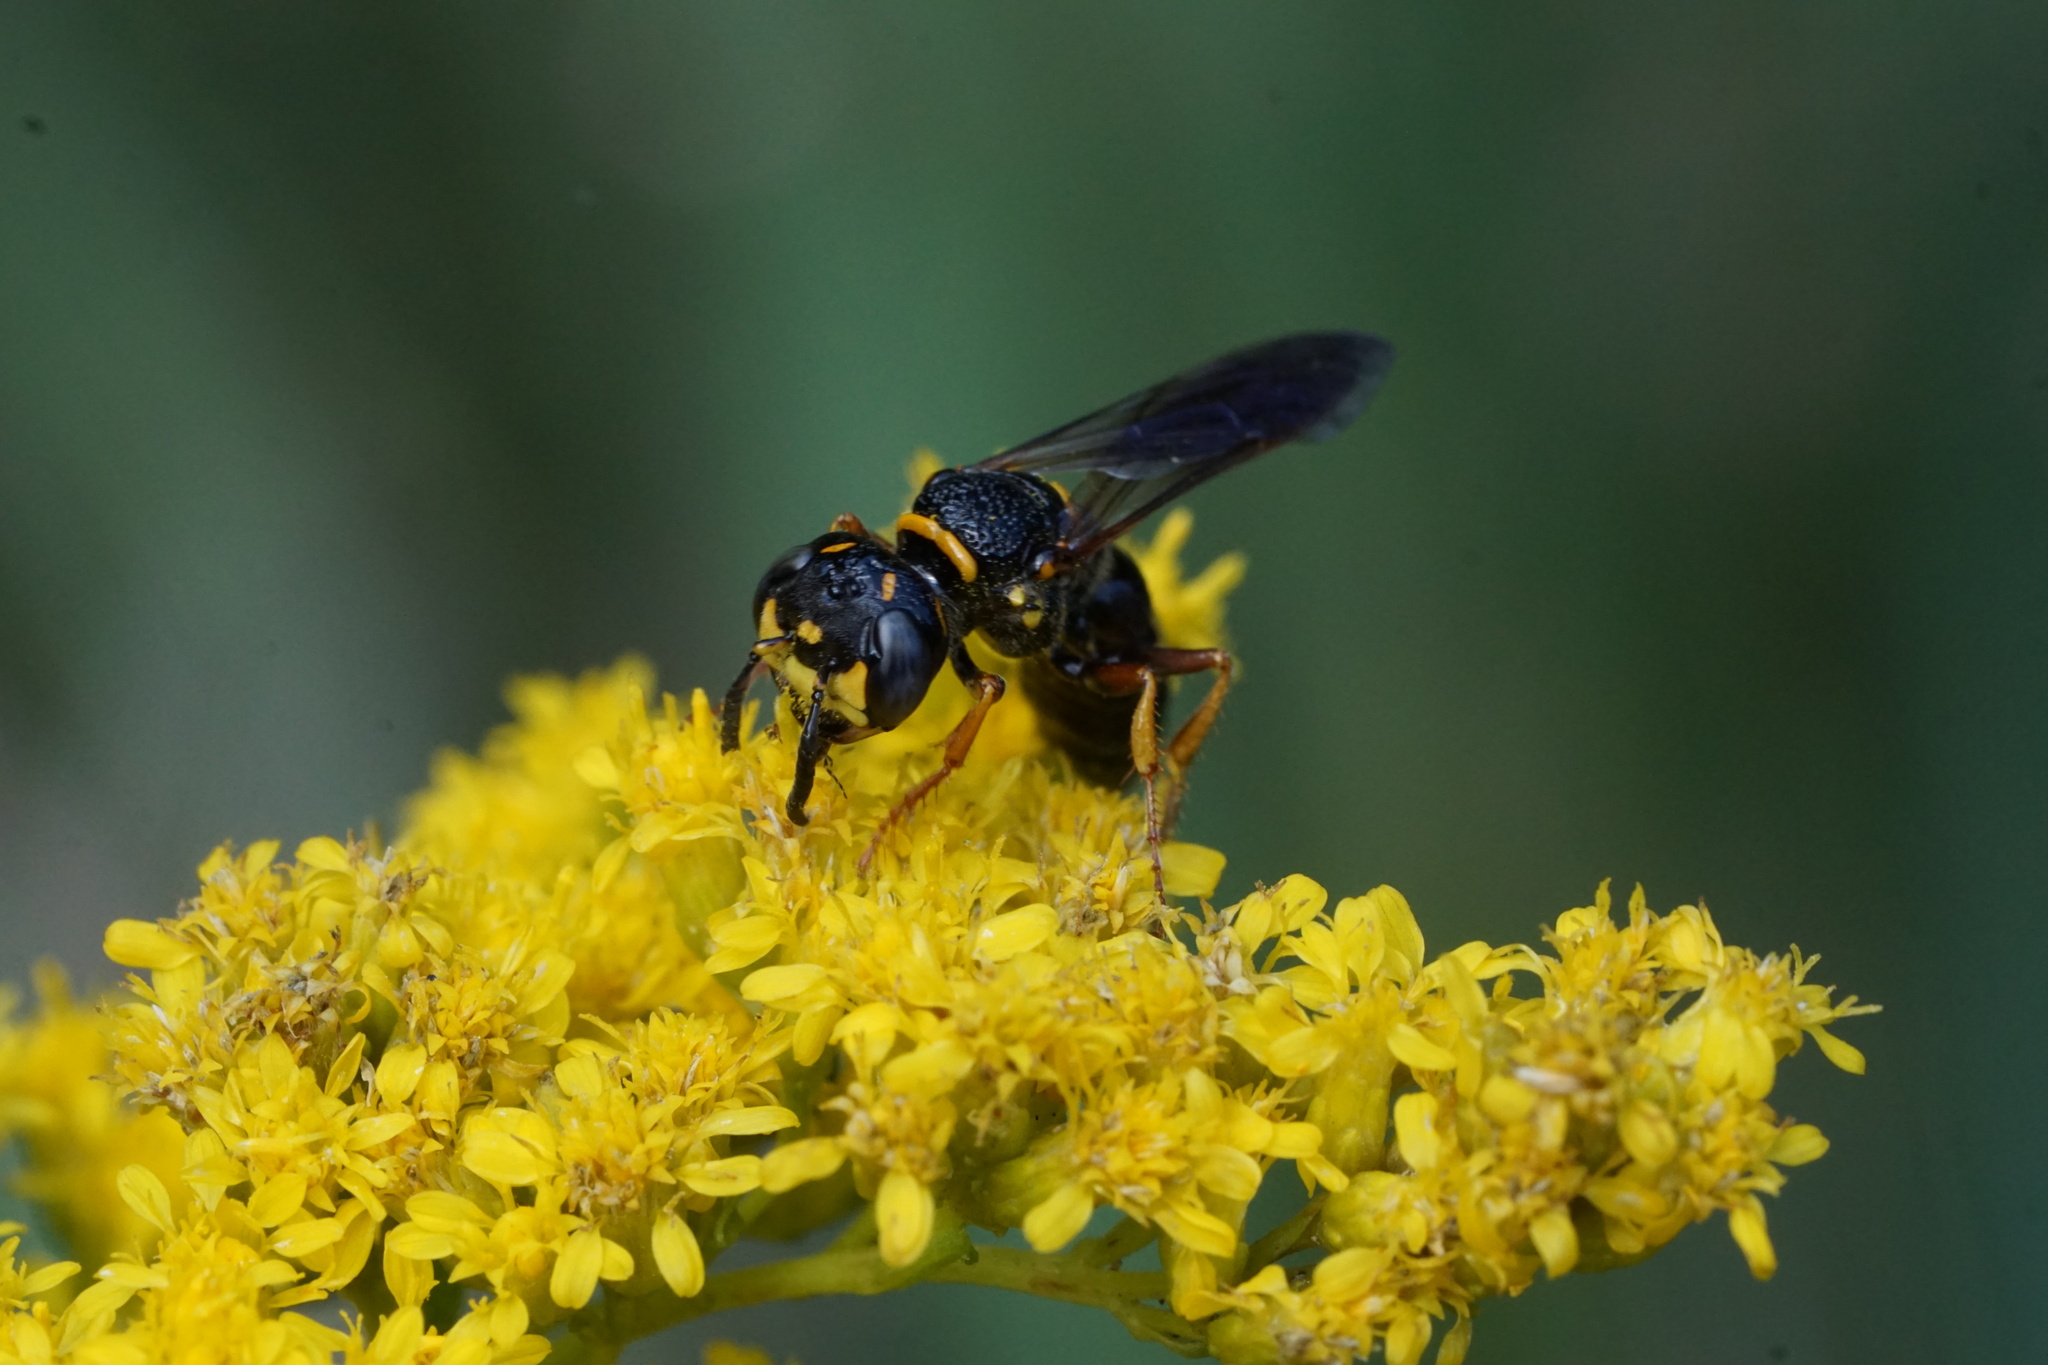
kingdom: Animalia
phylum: Arthropoda
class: Insecta
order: Hymenoptera
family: Crabronidae
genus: Philanthus
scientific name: Philanthus gibbosus
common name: Humped beewolf
